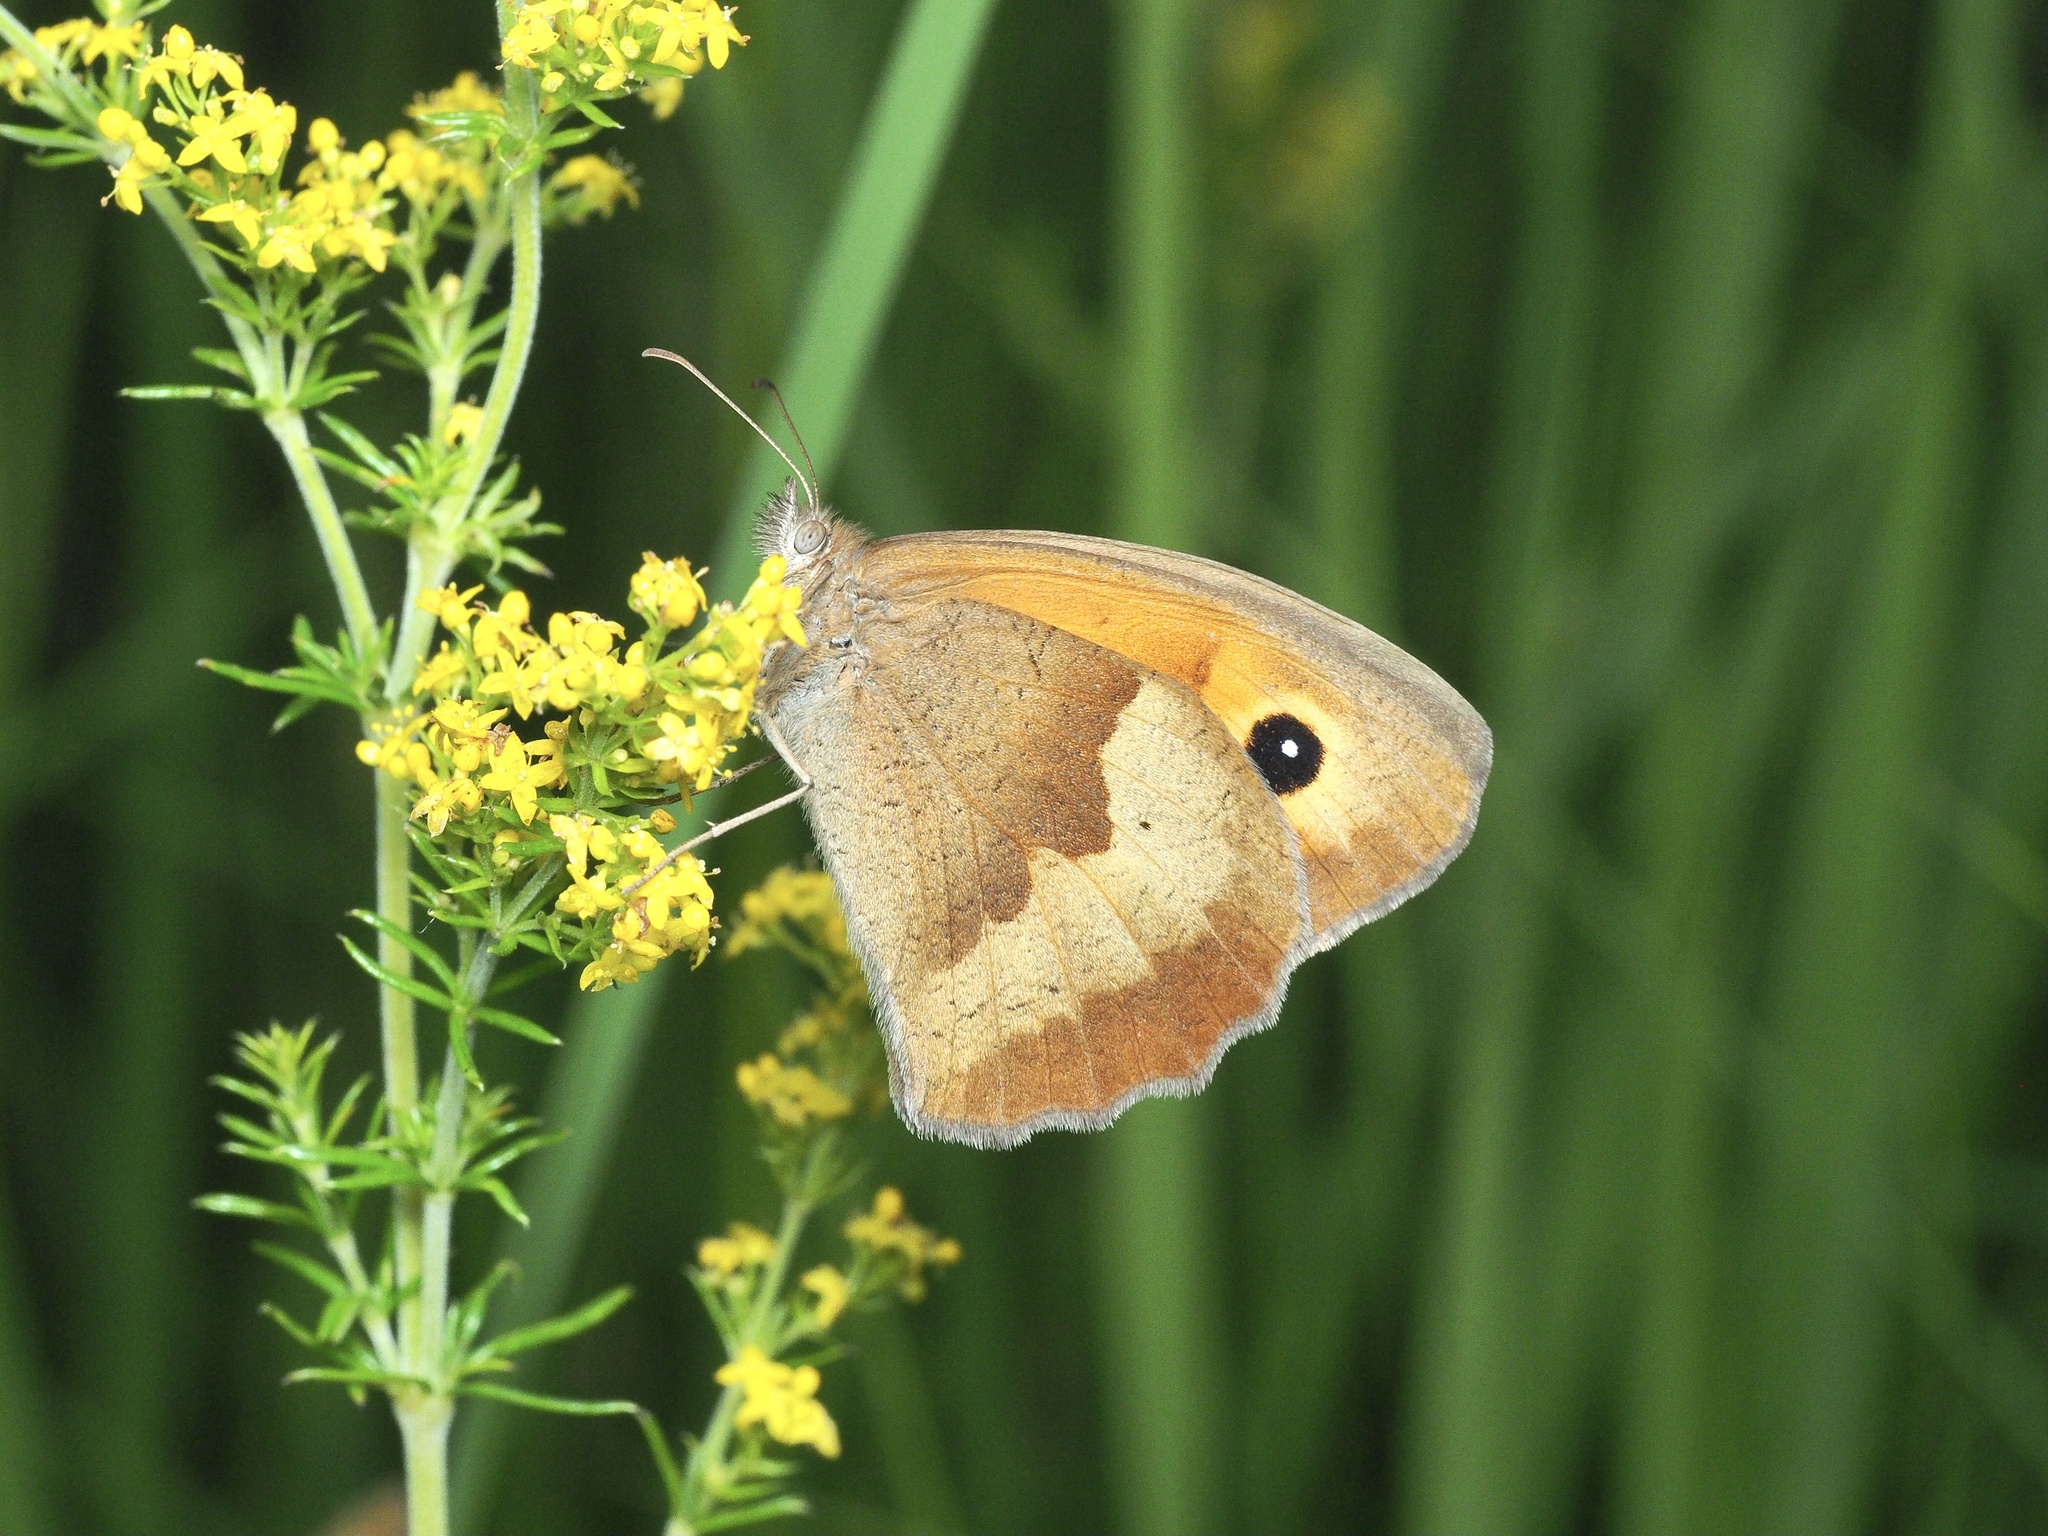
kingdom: Animalia
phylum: Arthropoda
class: Insecta
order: Lepidoptera
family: Nymphalidae
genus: Maniola
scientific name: Maniola jurtina
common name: Meadow brown
